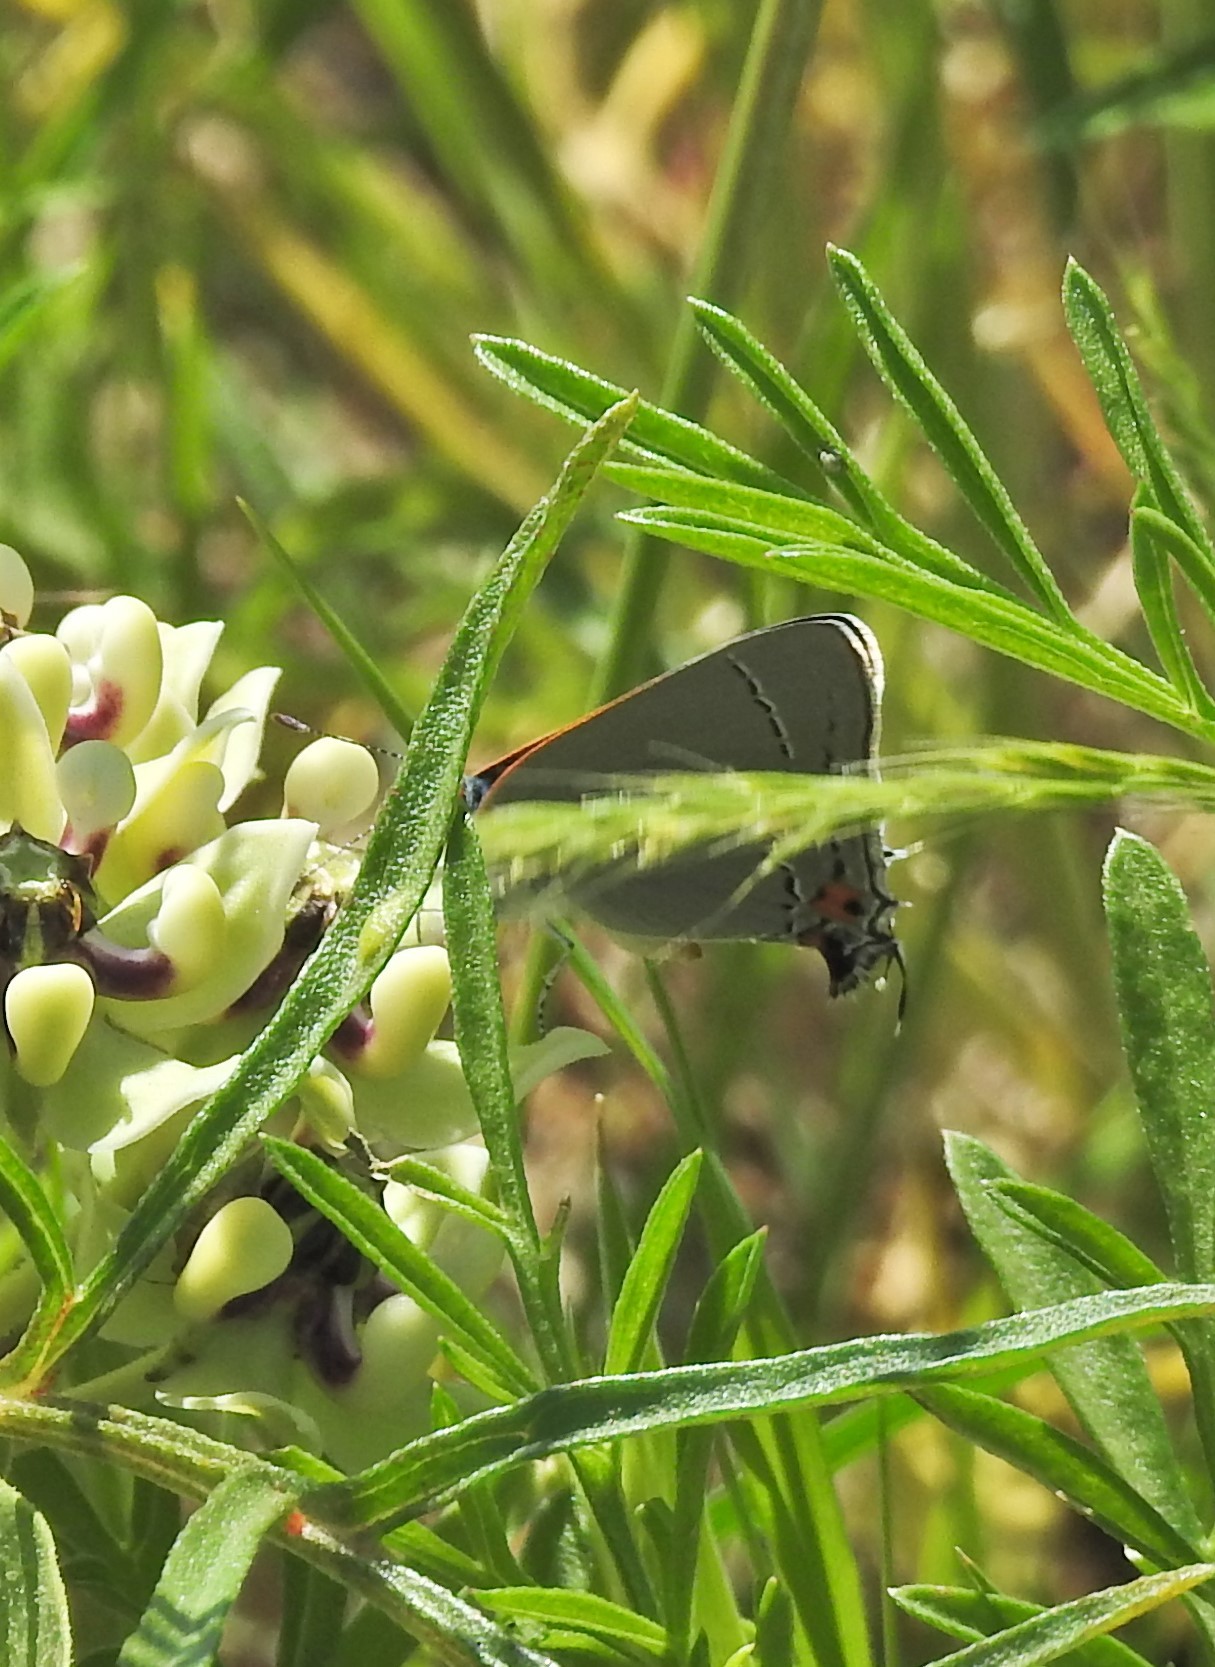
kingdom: Animalia
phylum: Arthropoda
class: Insecta
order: Lepidoptera
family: Lycaenidae
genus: Strymon
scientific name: Strymon melinus
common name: Gray hairstreak
